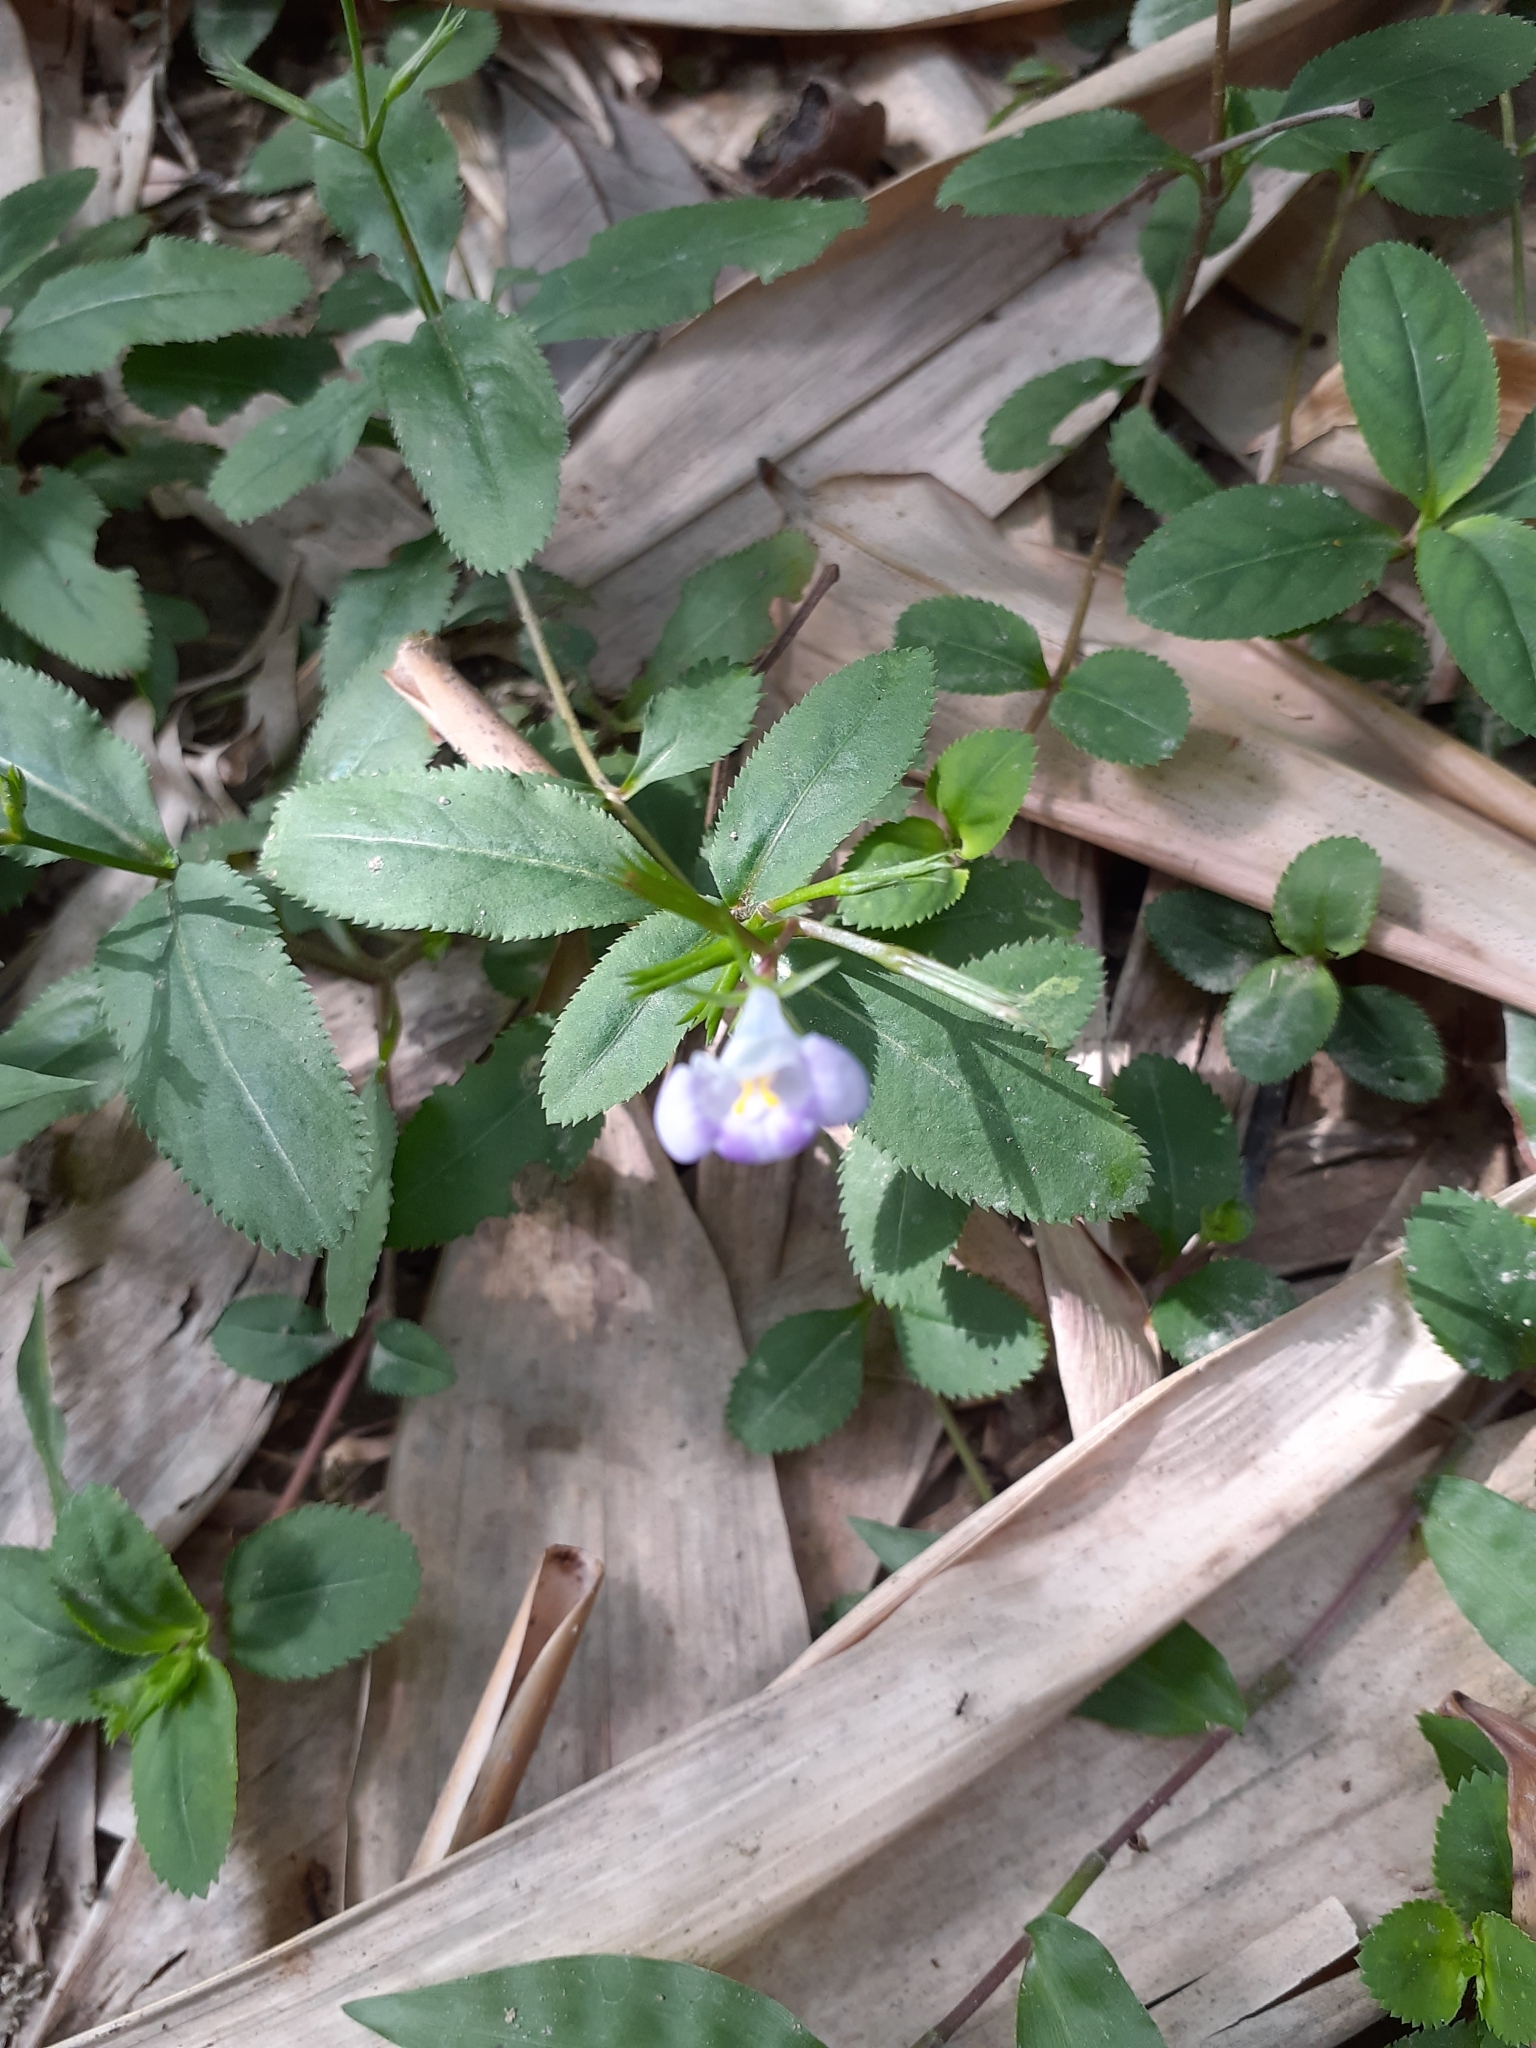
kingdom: Plantae
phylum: Tracheophyta
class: Magnoliopsida
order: Lamiales
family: Linderniaceae
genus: Bonnaya
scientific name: Bonnaya ruelloides
